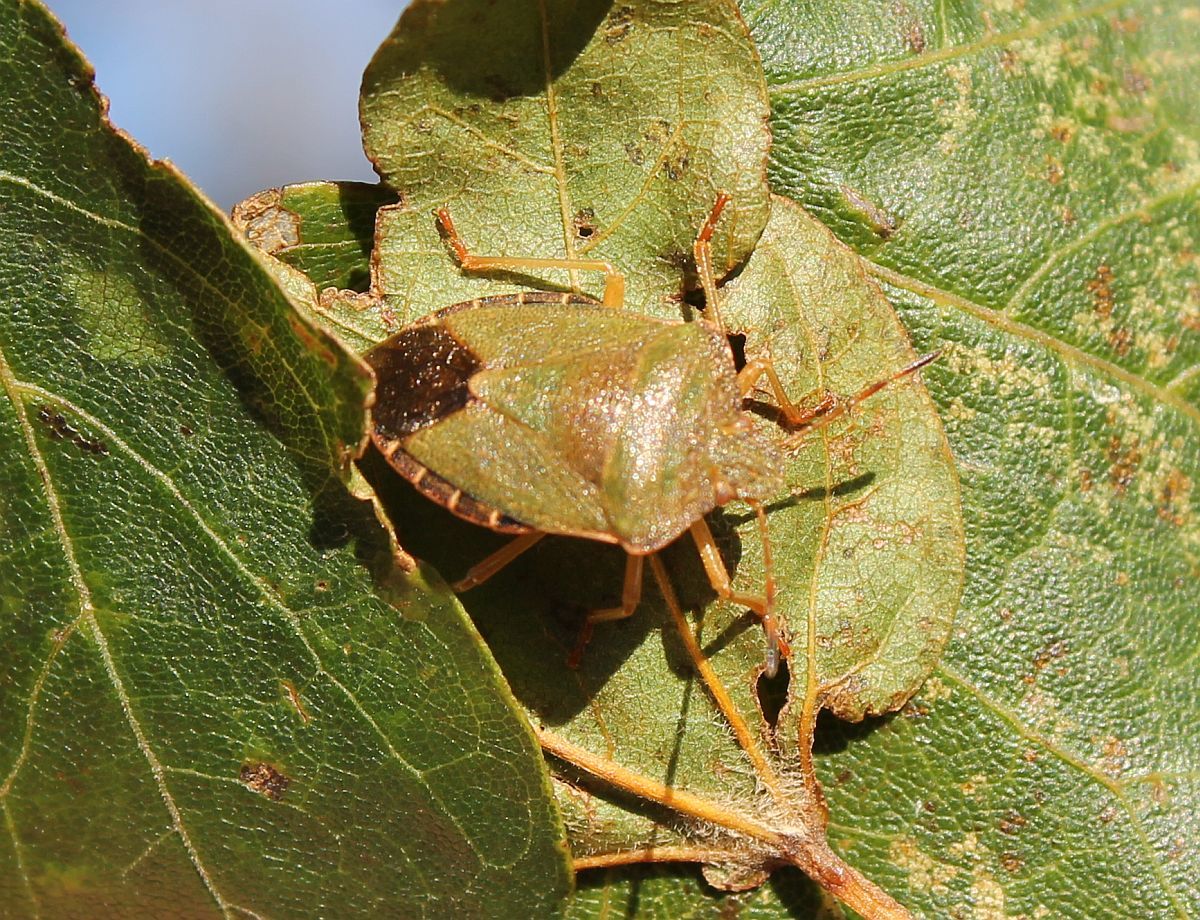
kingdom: Animalia
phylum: Arthropoda
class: Insecta
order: Hemiptera
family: Pentatomidae
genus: Palomena
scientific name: Palomena prasina
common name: Green shieldbug
